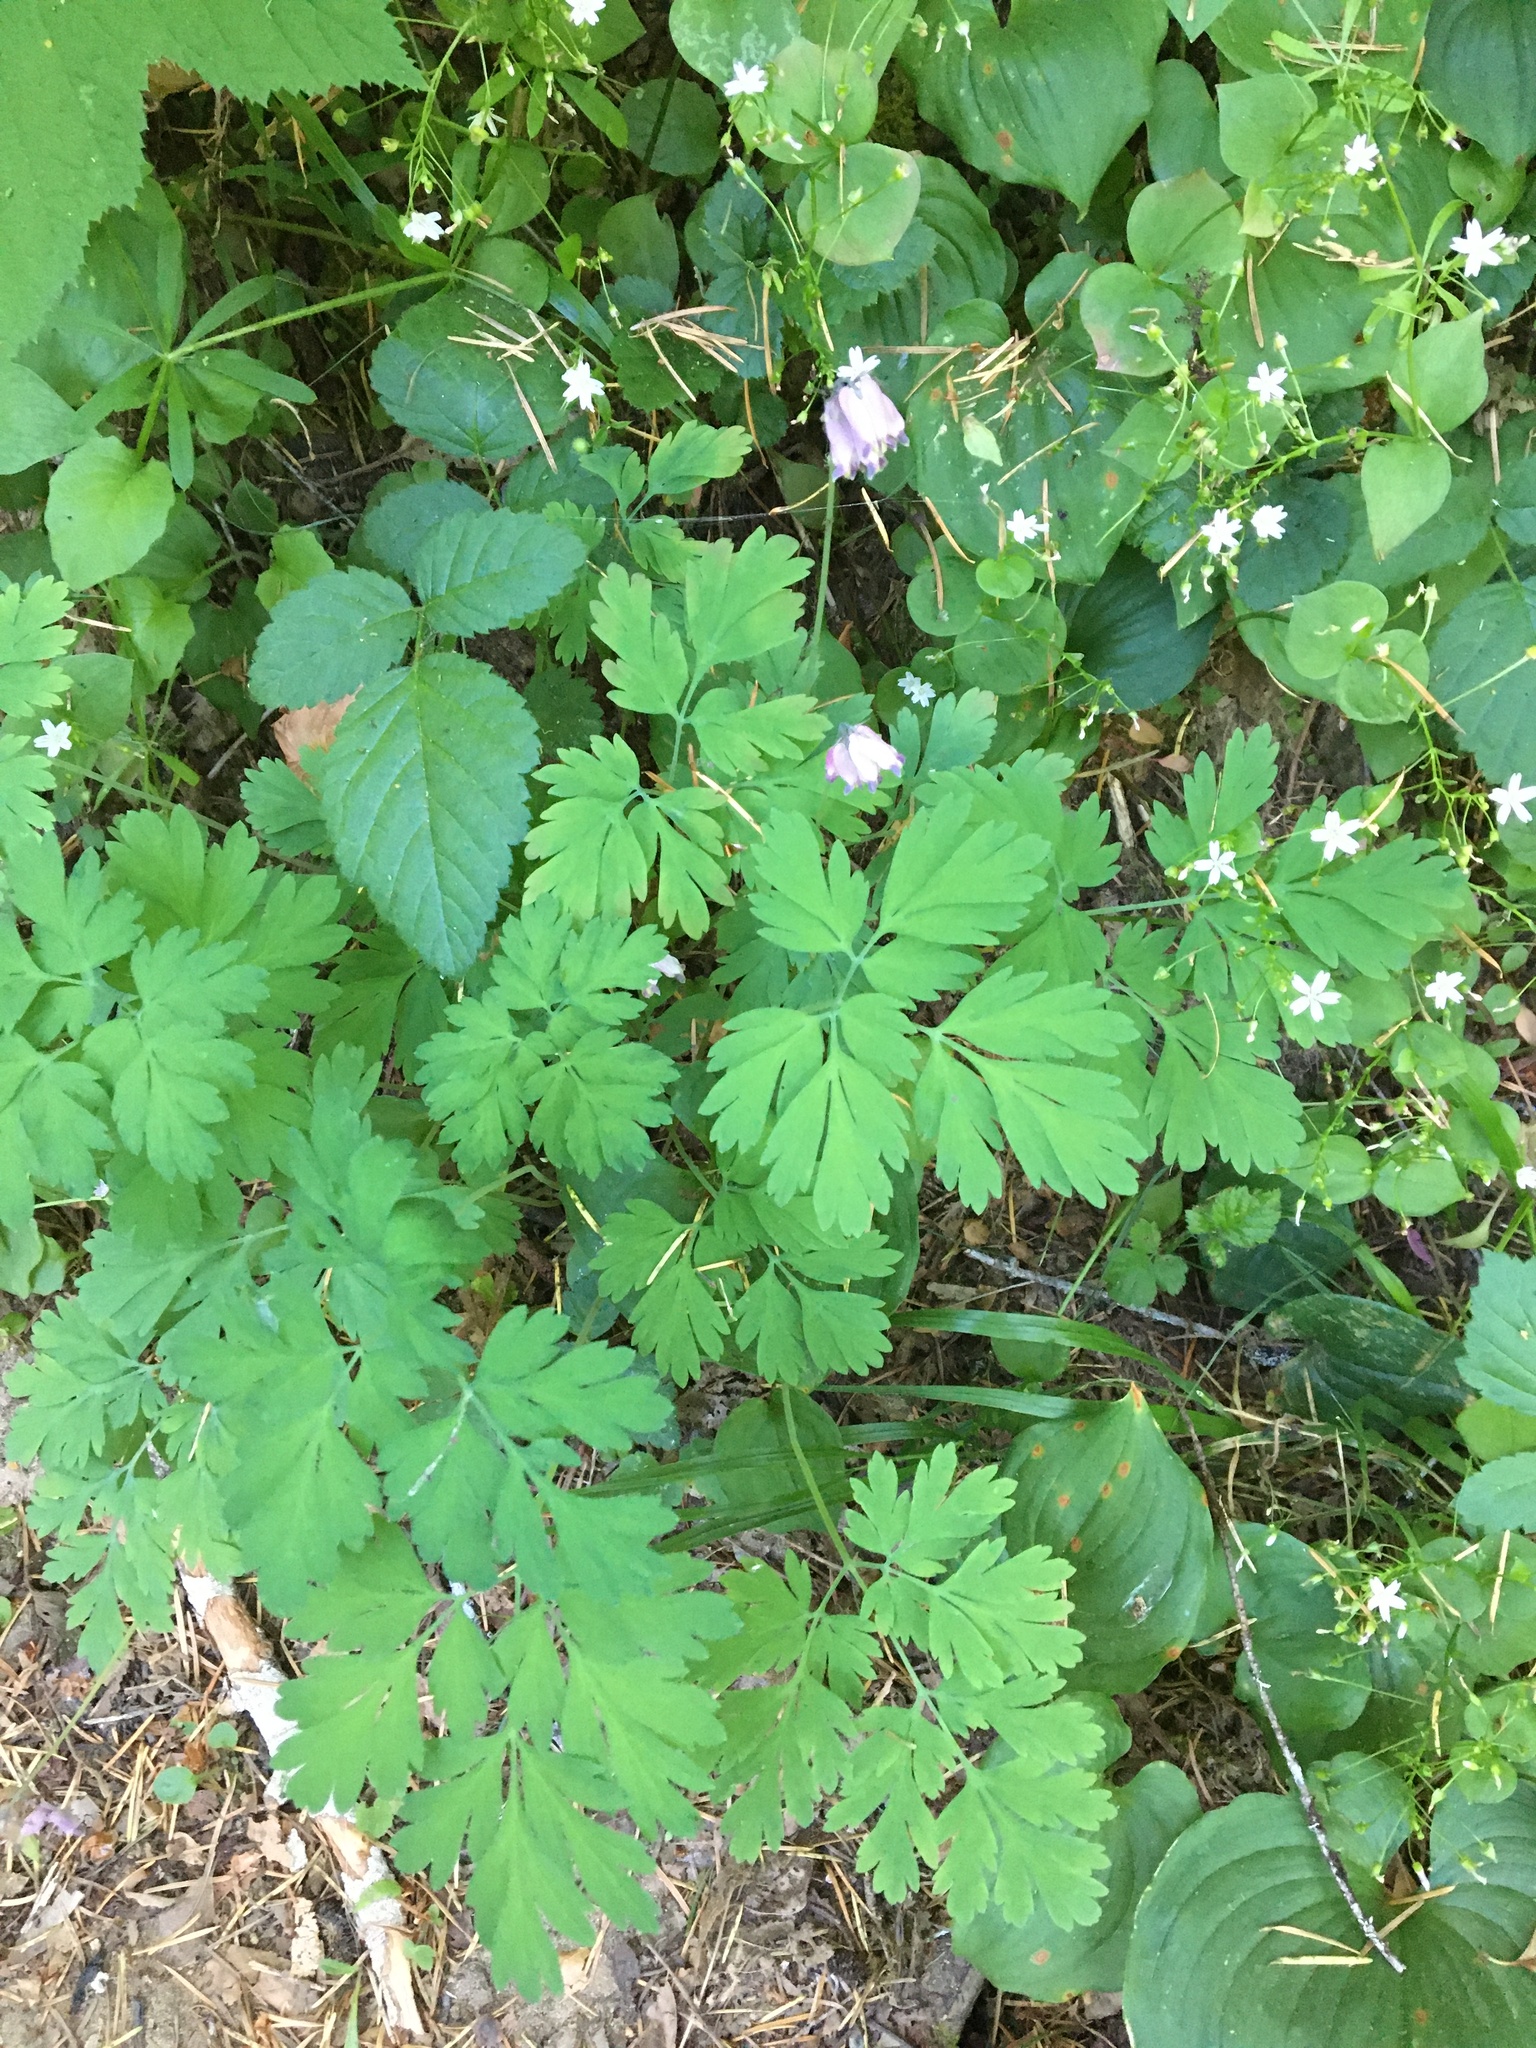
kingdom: Plantae
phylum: Tracheophyta
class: Magnoliopsida
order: Ranunculales
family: Papaveraceae
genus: Dicentra
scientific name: Dicentra formosa
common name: Bleeding-heart
